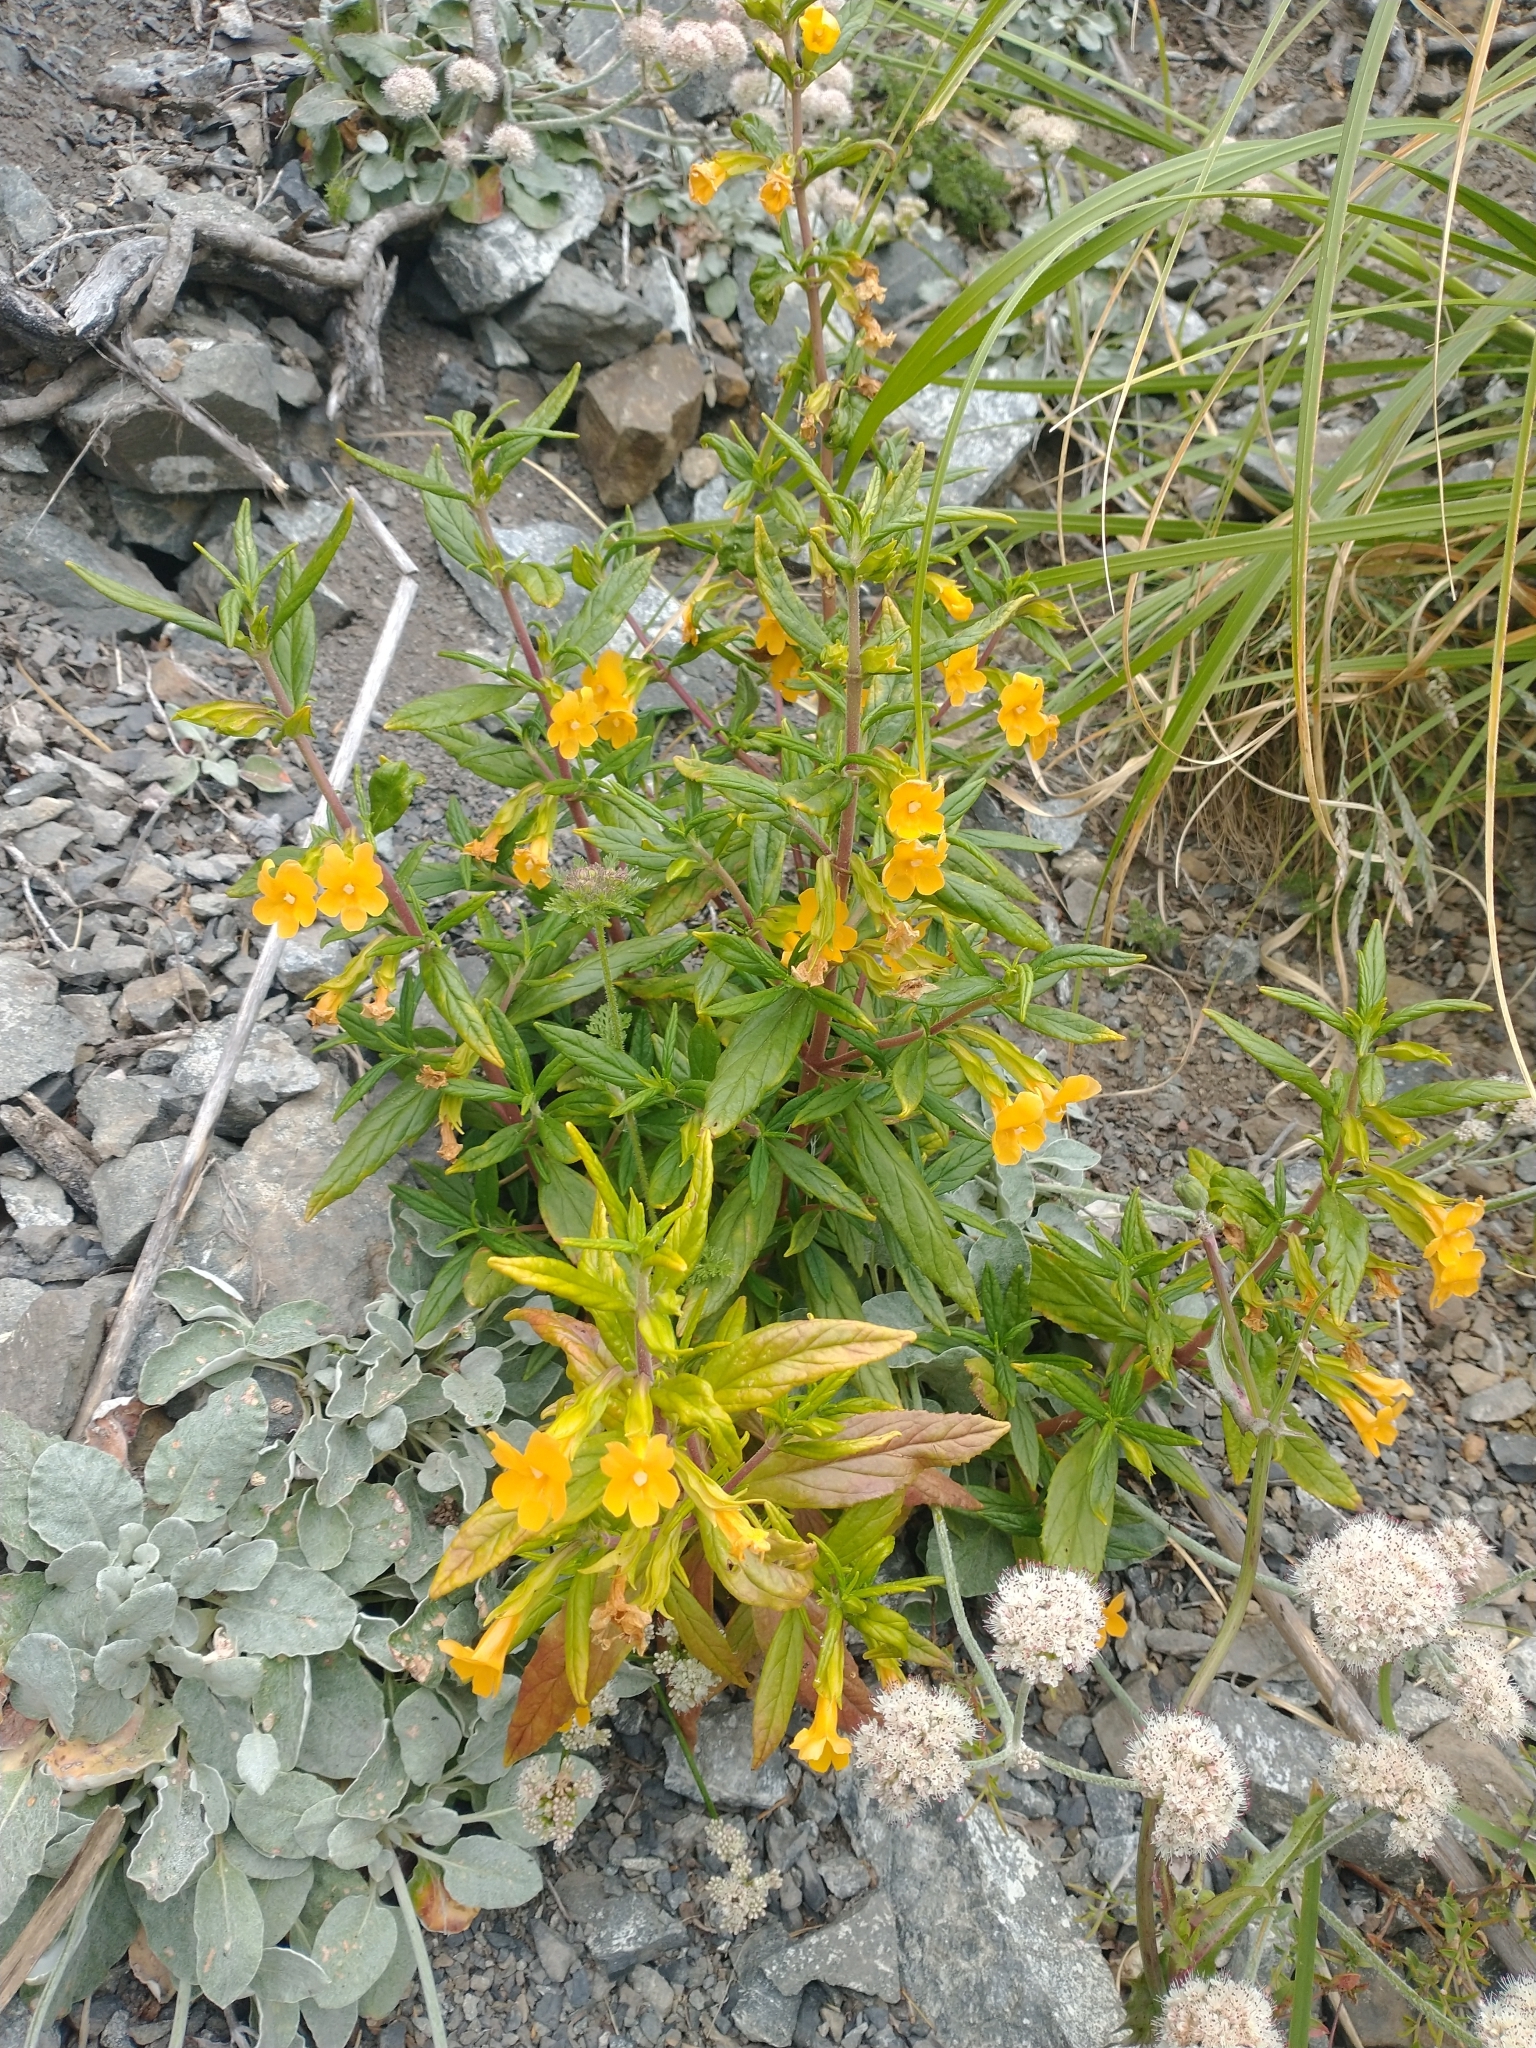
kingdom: Plantae
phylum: Tracheophyta
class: Magnoliopsida
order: Lamiales
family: Phrymaceae
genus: Diplacus
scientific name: Diplacus aurantiacus
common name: Bush monkey-flower
